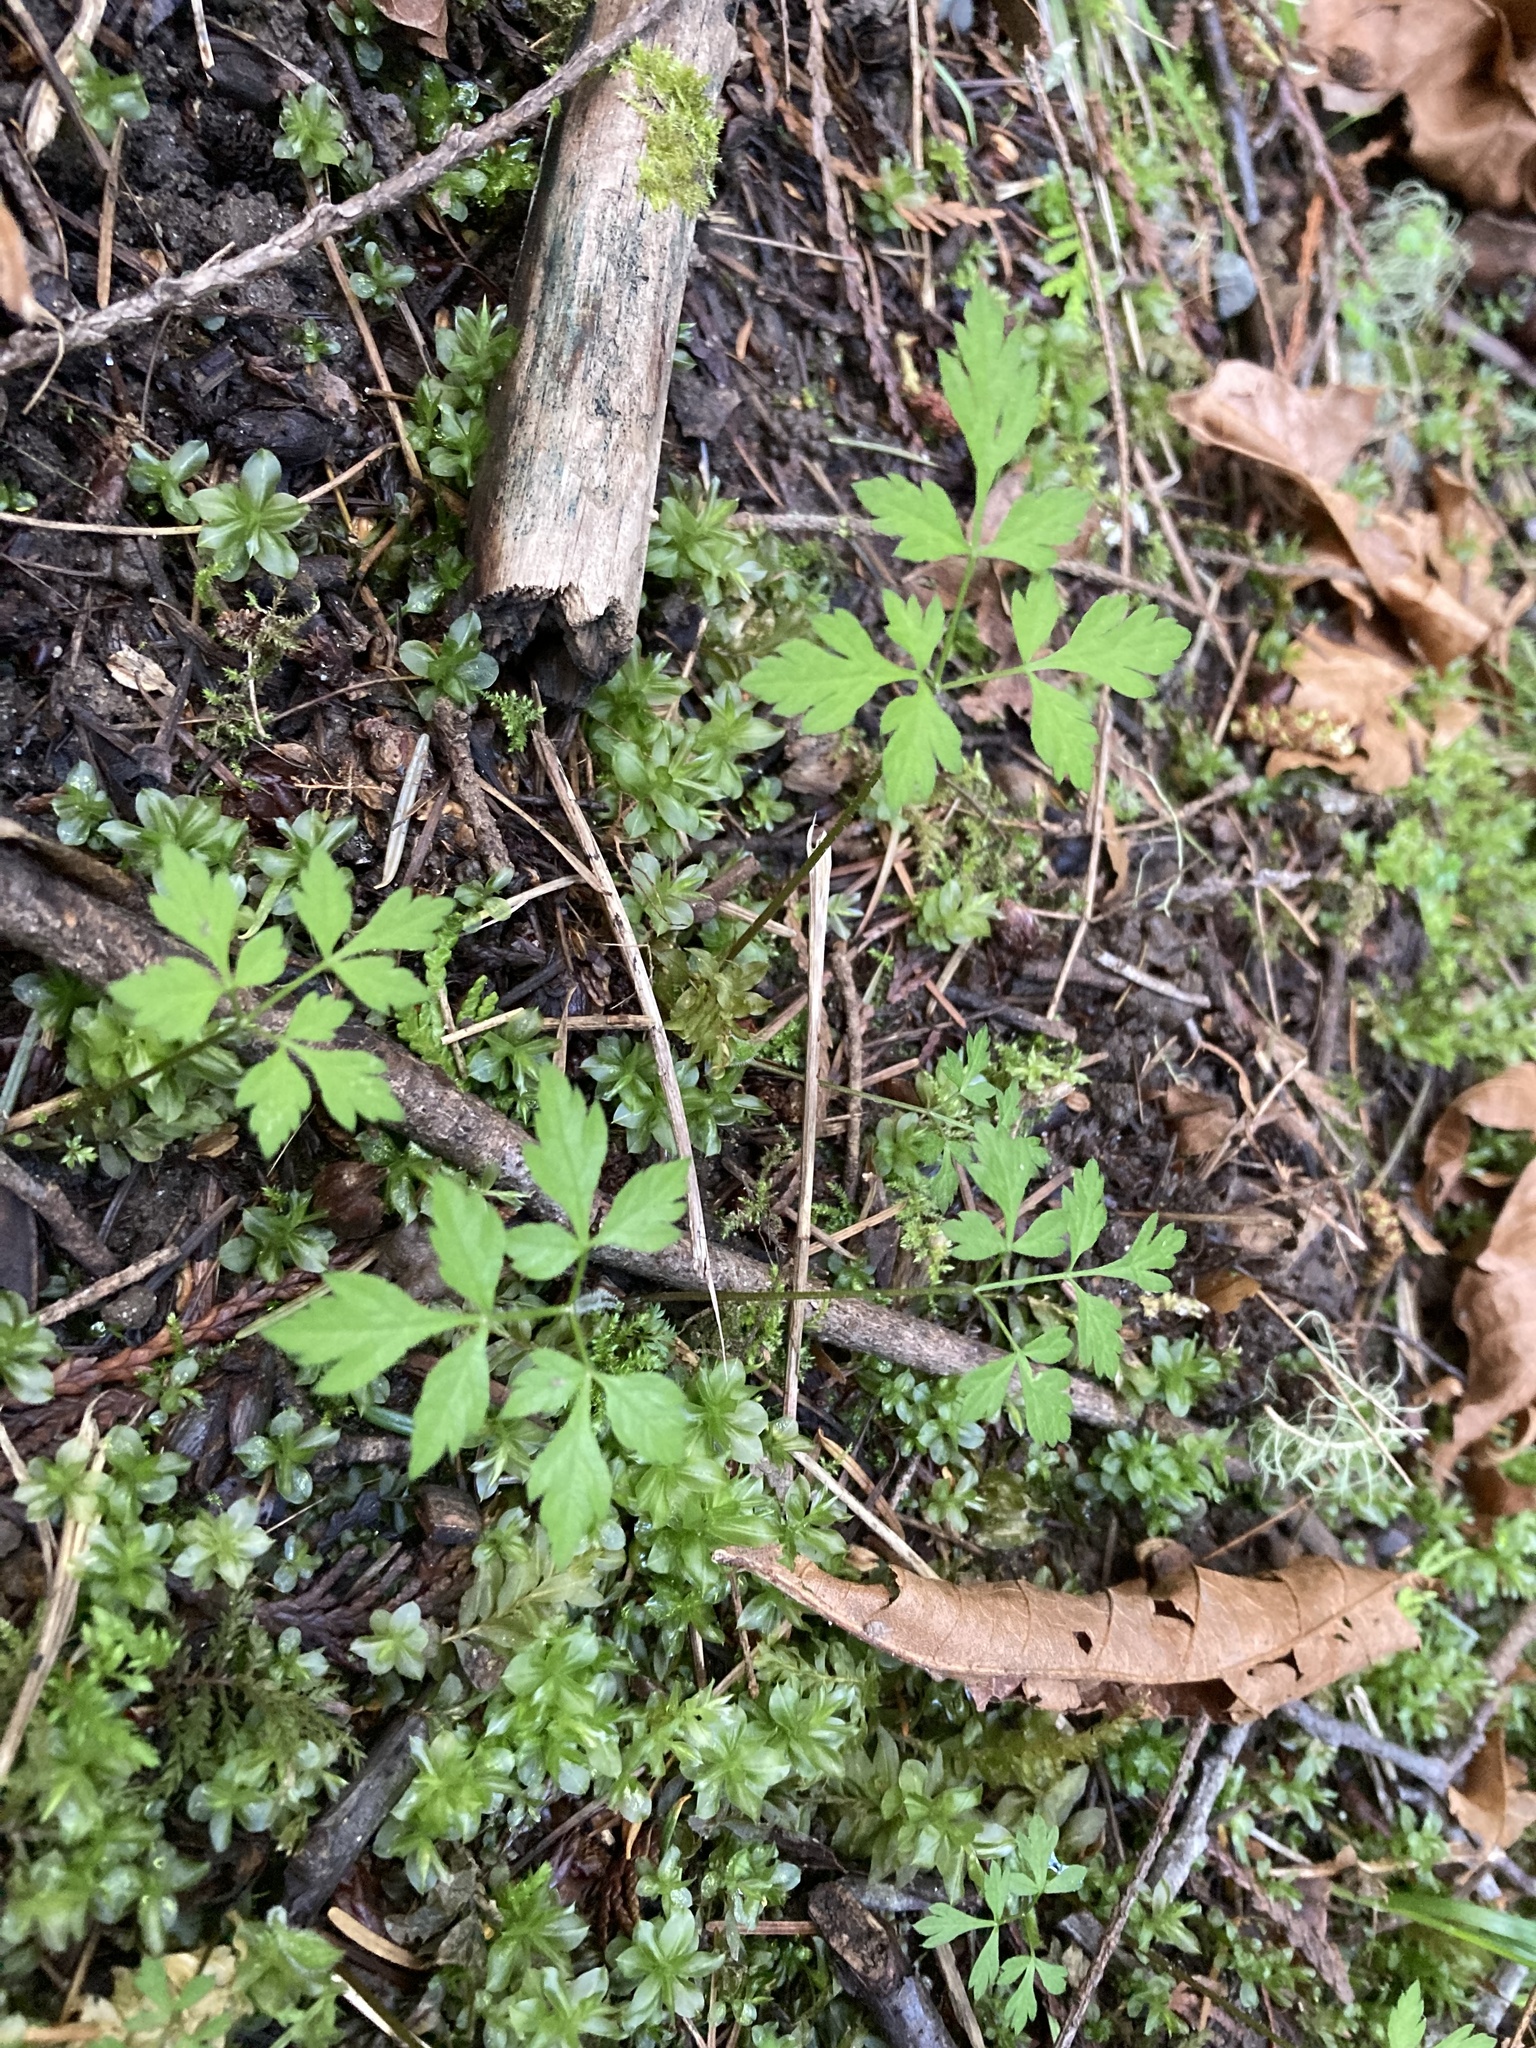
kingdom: Plantae
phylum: Tracheophyta
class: Magnoliopsida
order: Apiales
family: Apiaceae
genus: Osmorhiza
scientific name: Osmorhiza berteroi
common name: Mountain sweet cicely
